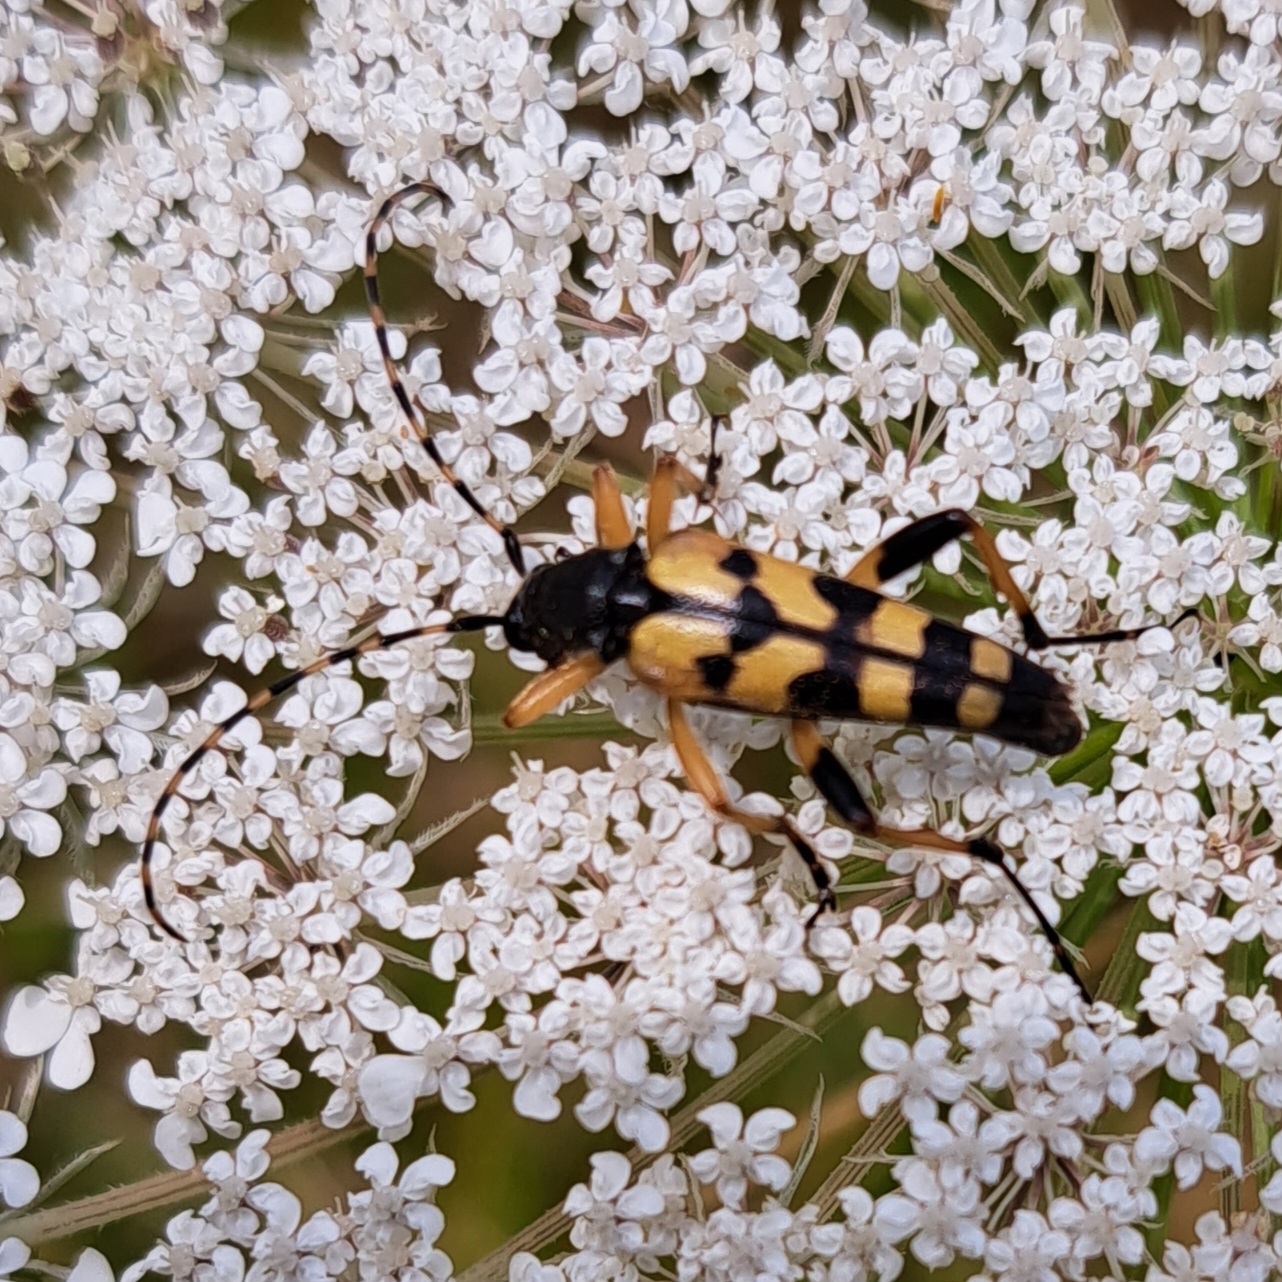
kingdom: Animalia
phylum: Arthropoda
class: Insecta
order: Coleoptera
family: Cerambycidae
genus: Rutpela
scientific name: Rutpela maculata
